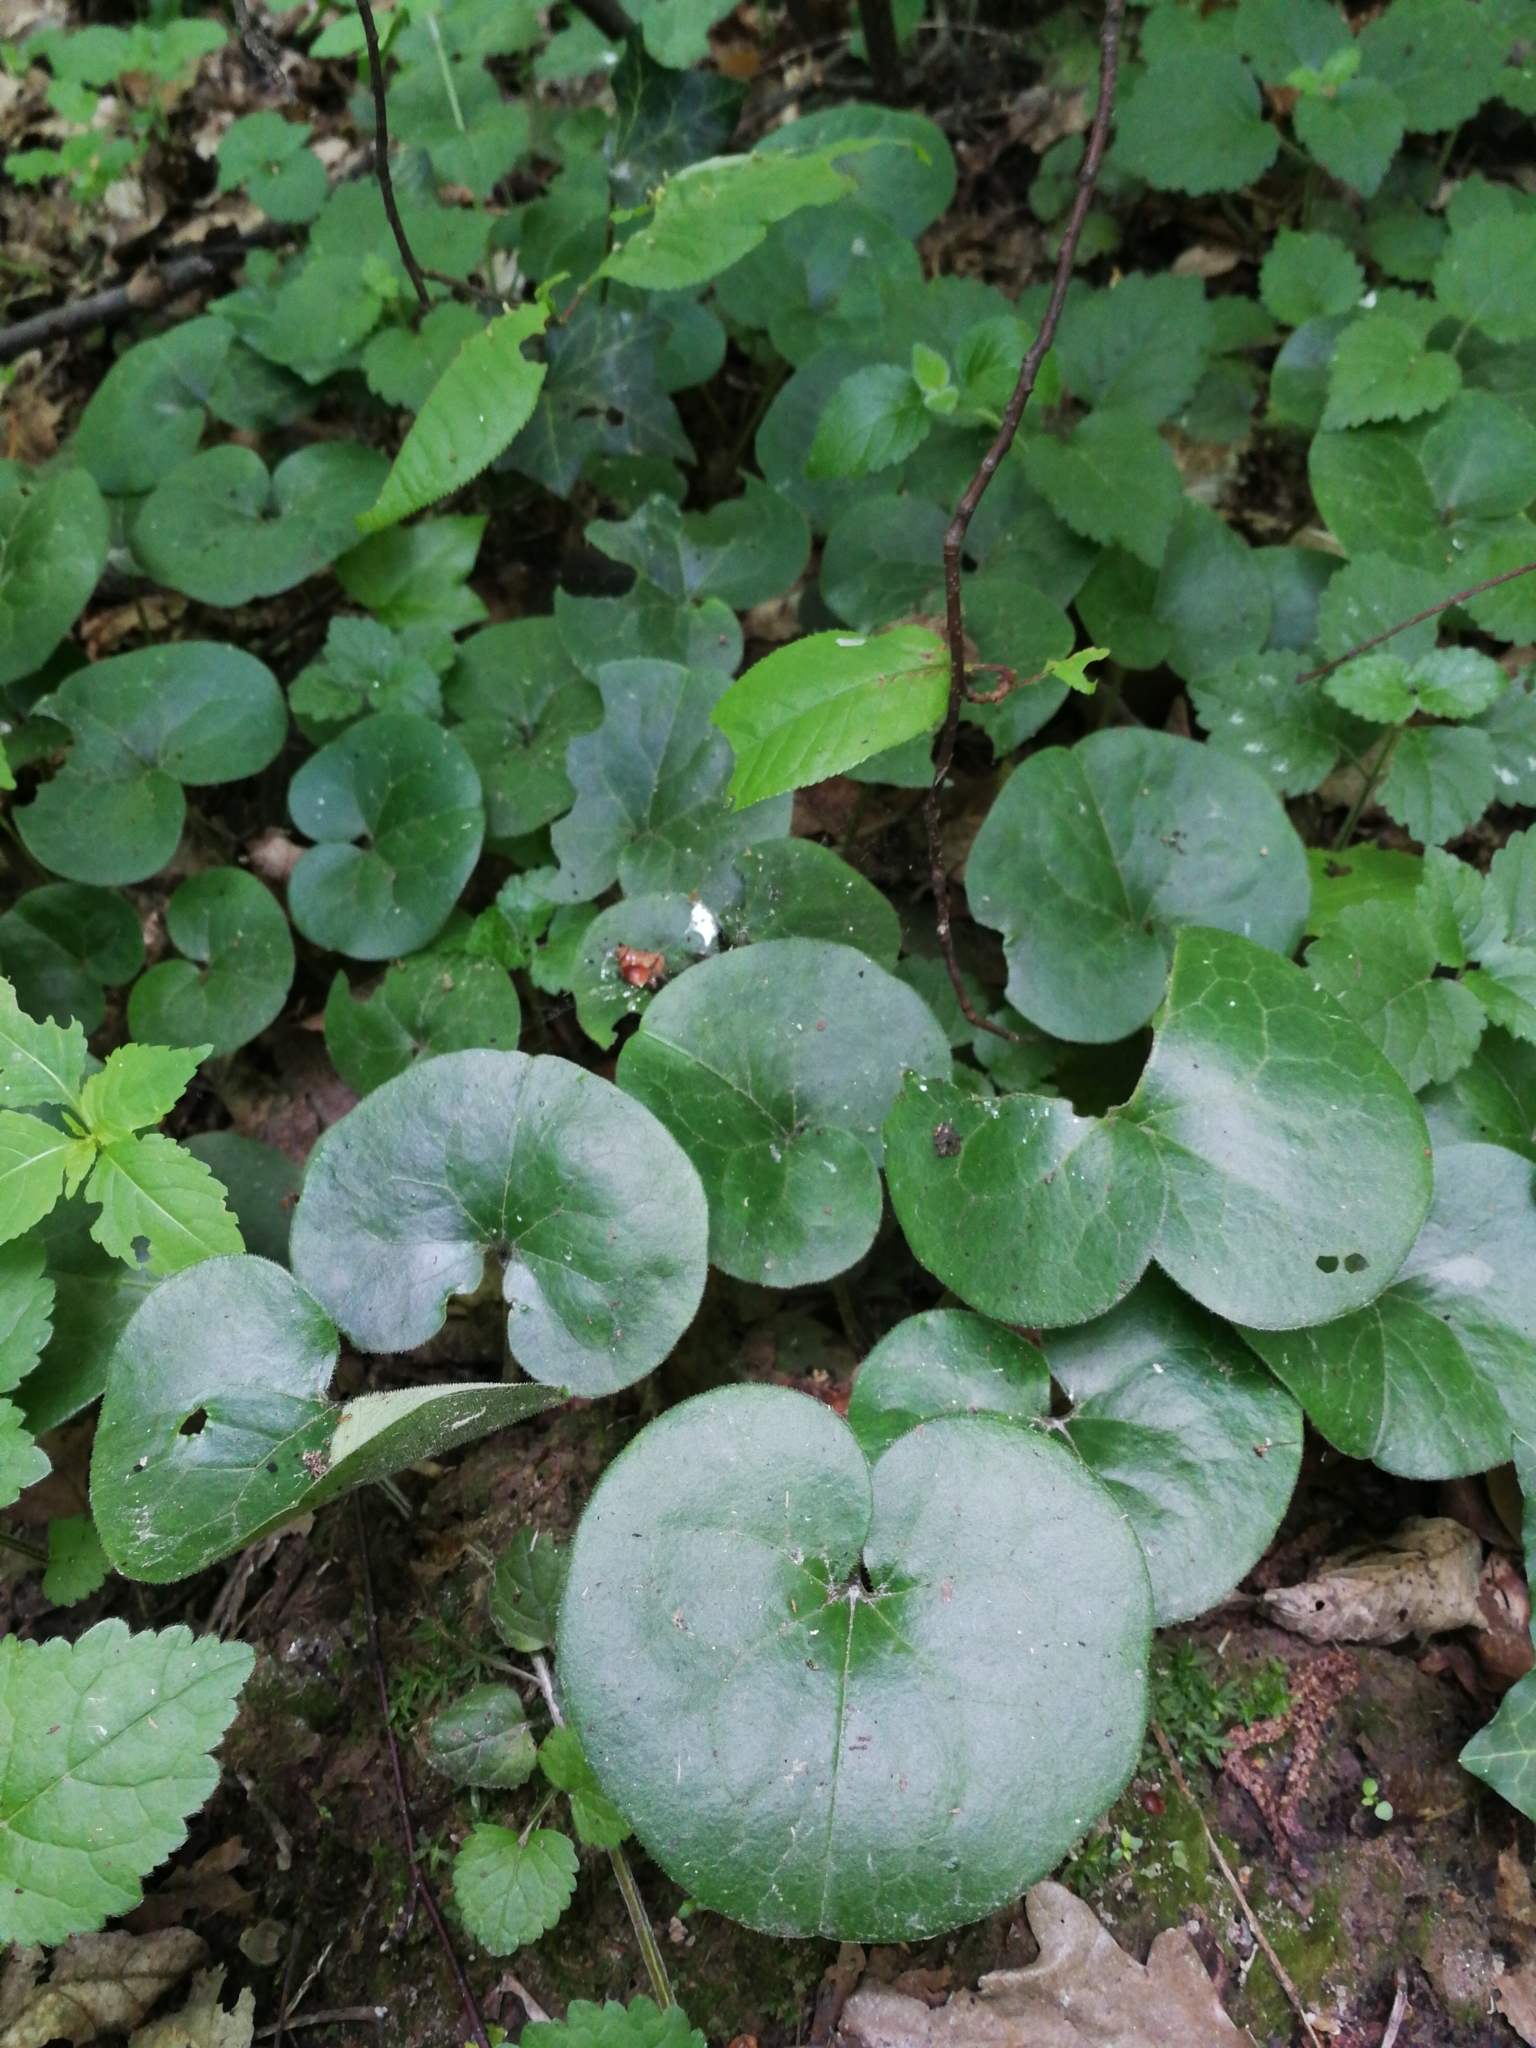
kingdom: Plantae
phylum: Tracheophyta
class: Magnoliopsida
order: Piperales
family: Aristolochiaceae
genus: Asarum
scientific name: Asarum europaeum
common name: Asarabacca
